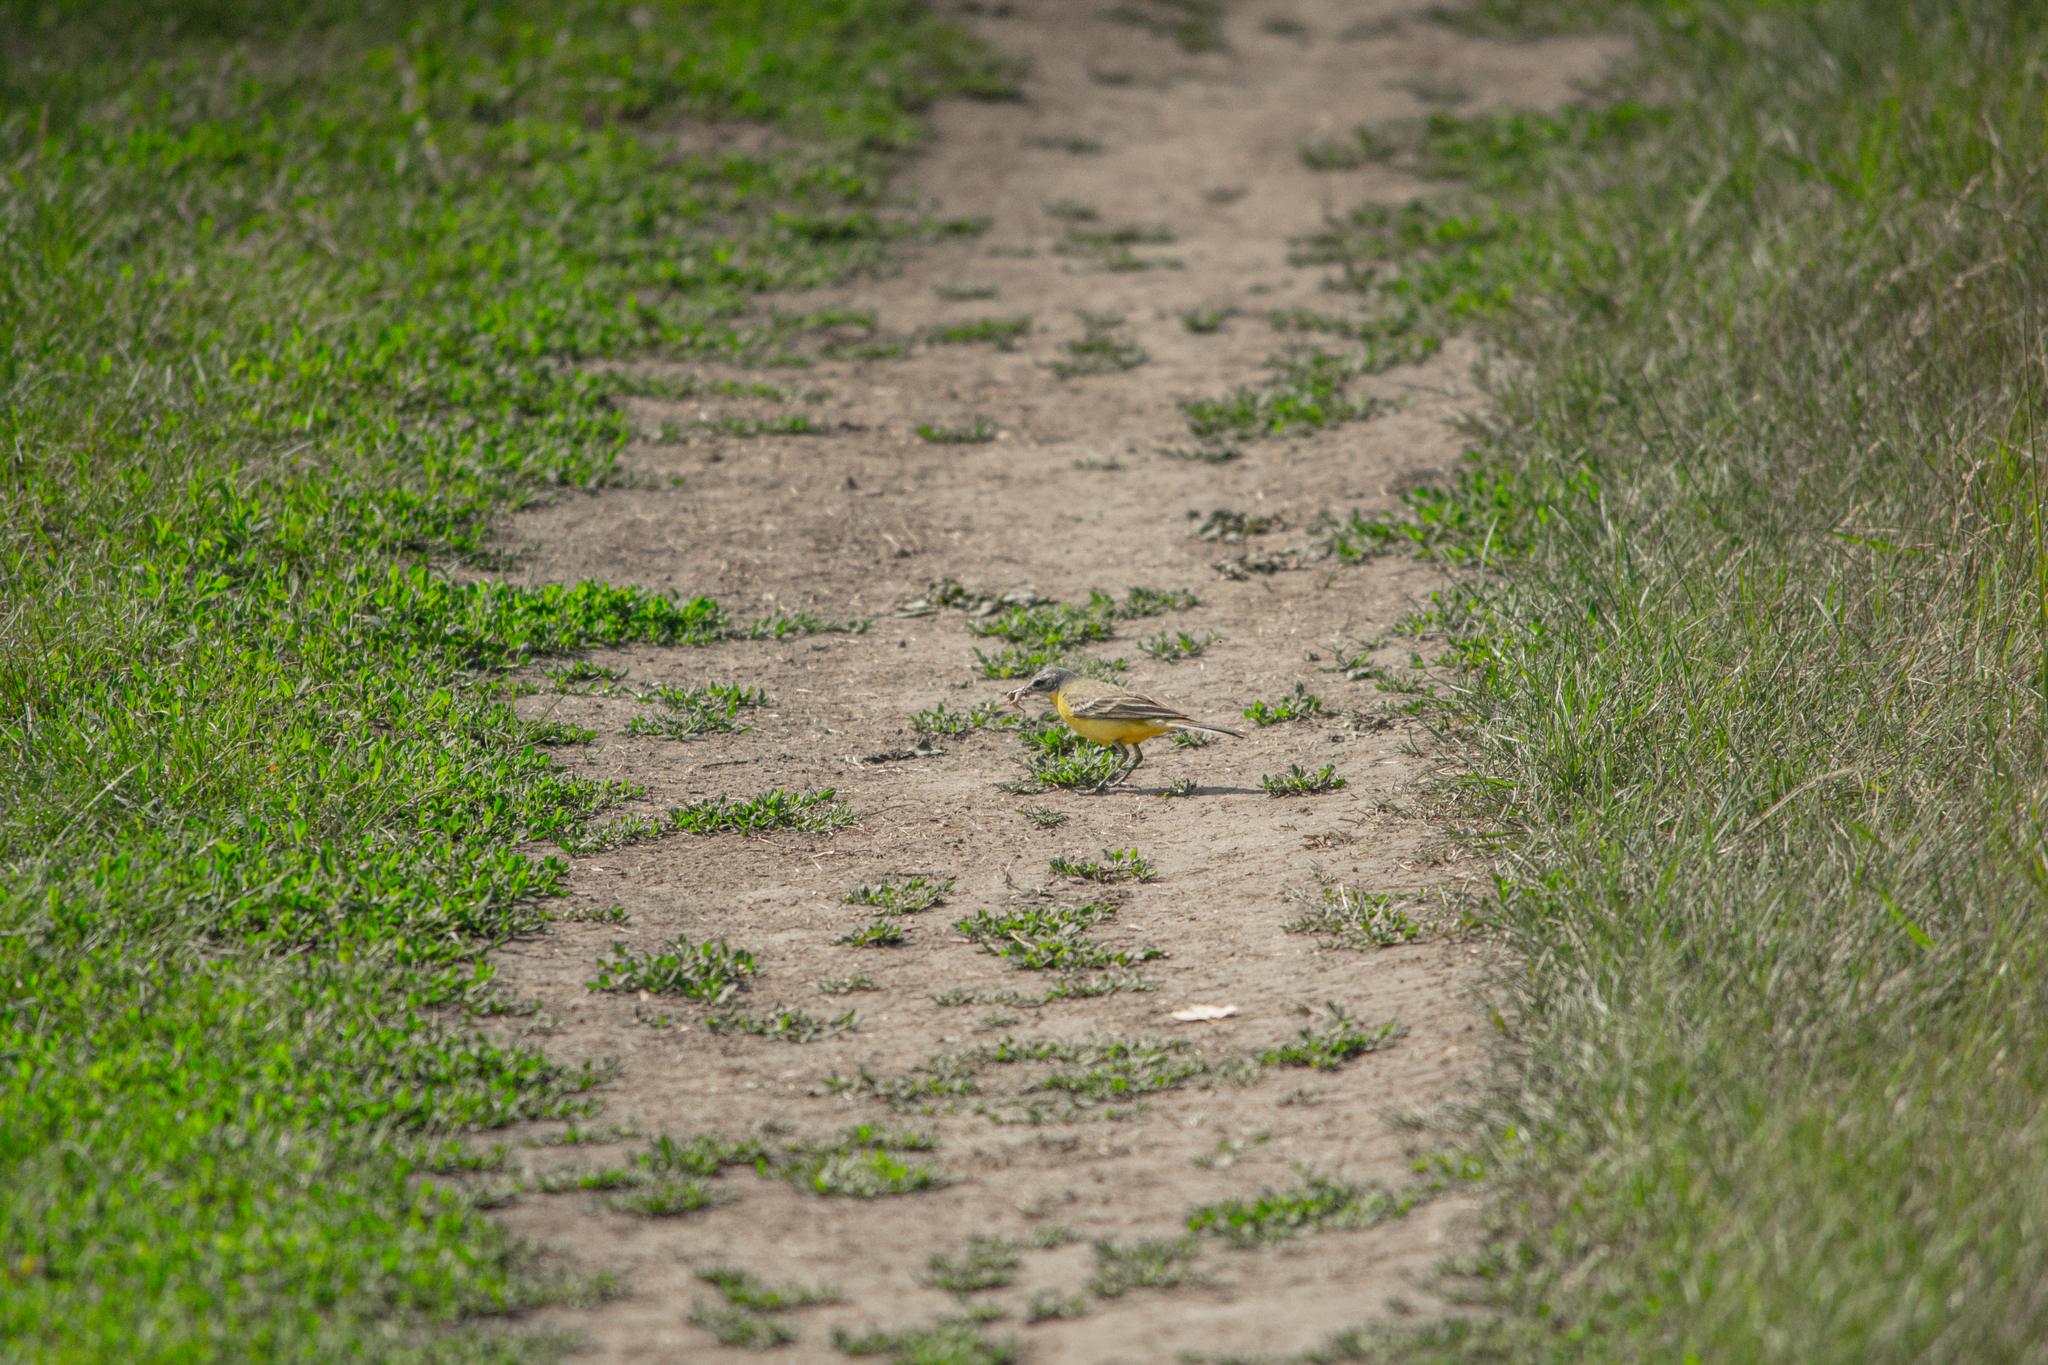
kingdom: Animalia
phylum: Chordata
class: Aves
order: Passeriformes
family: Motacillidae
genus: Motacilla
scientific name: Motacilla flava
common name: Western yellow wagtail
